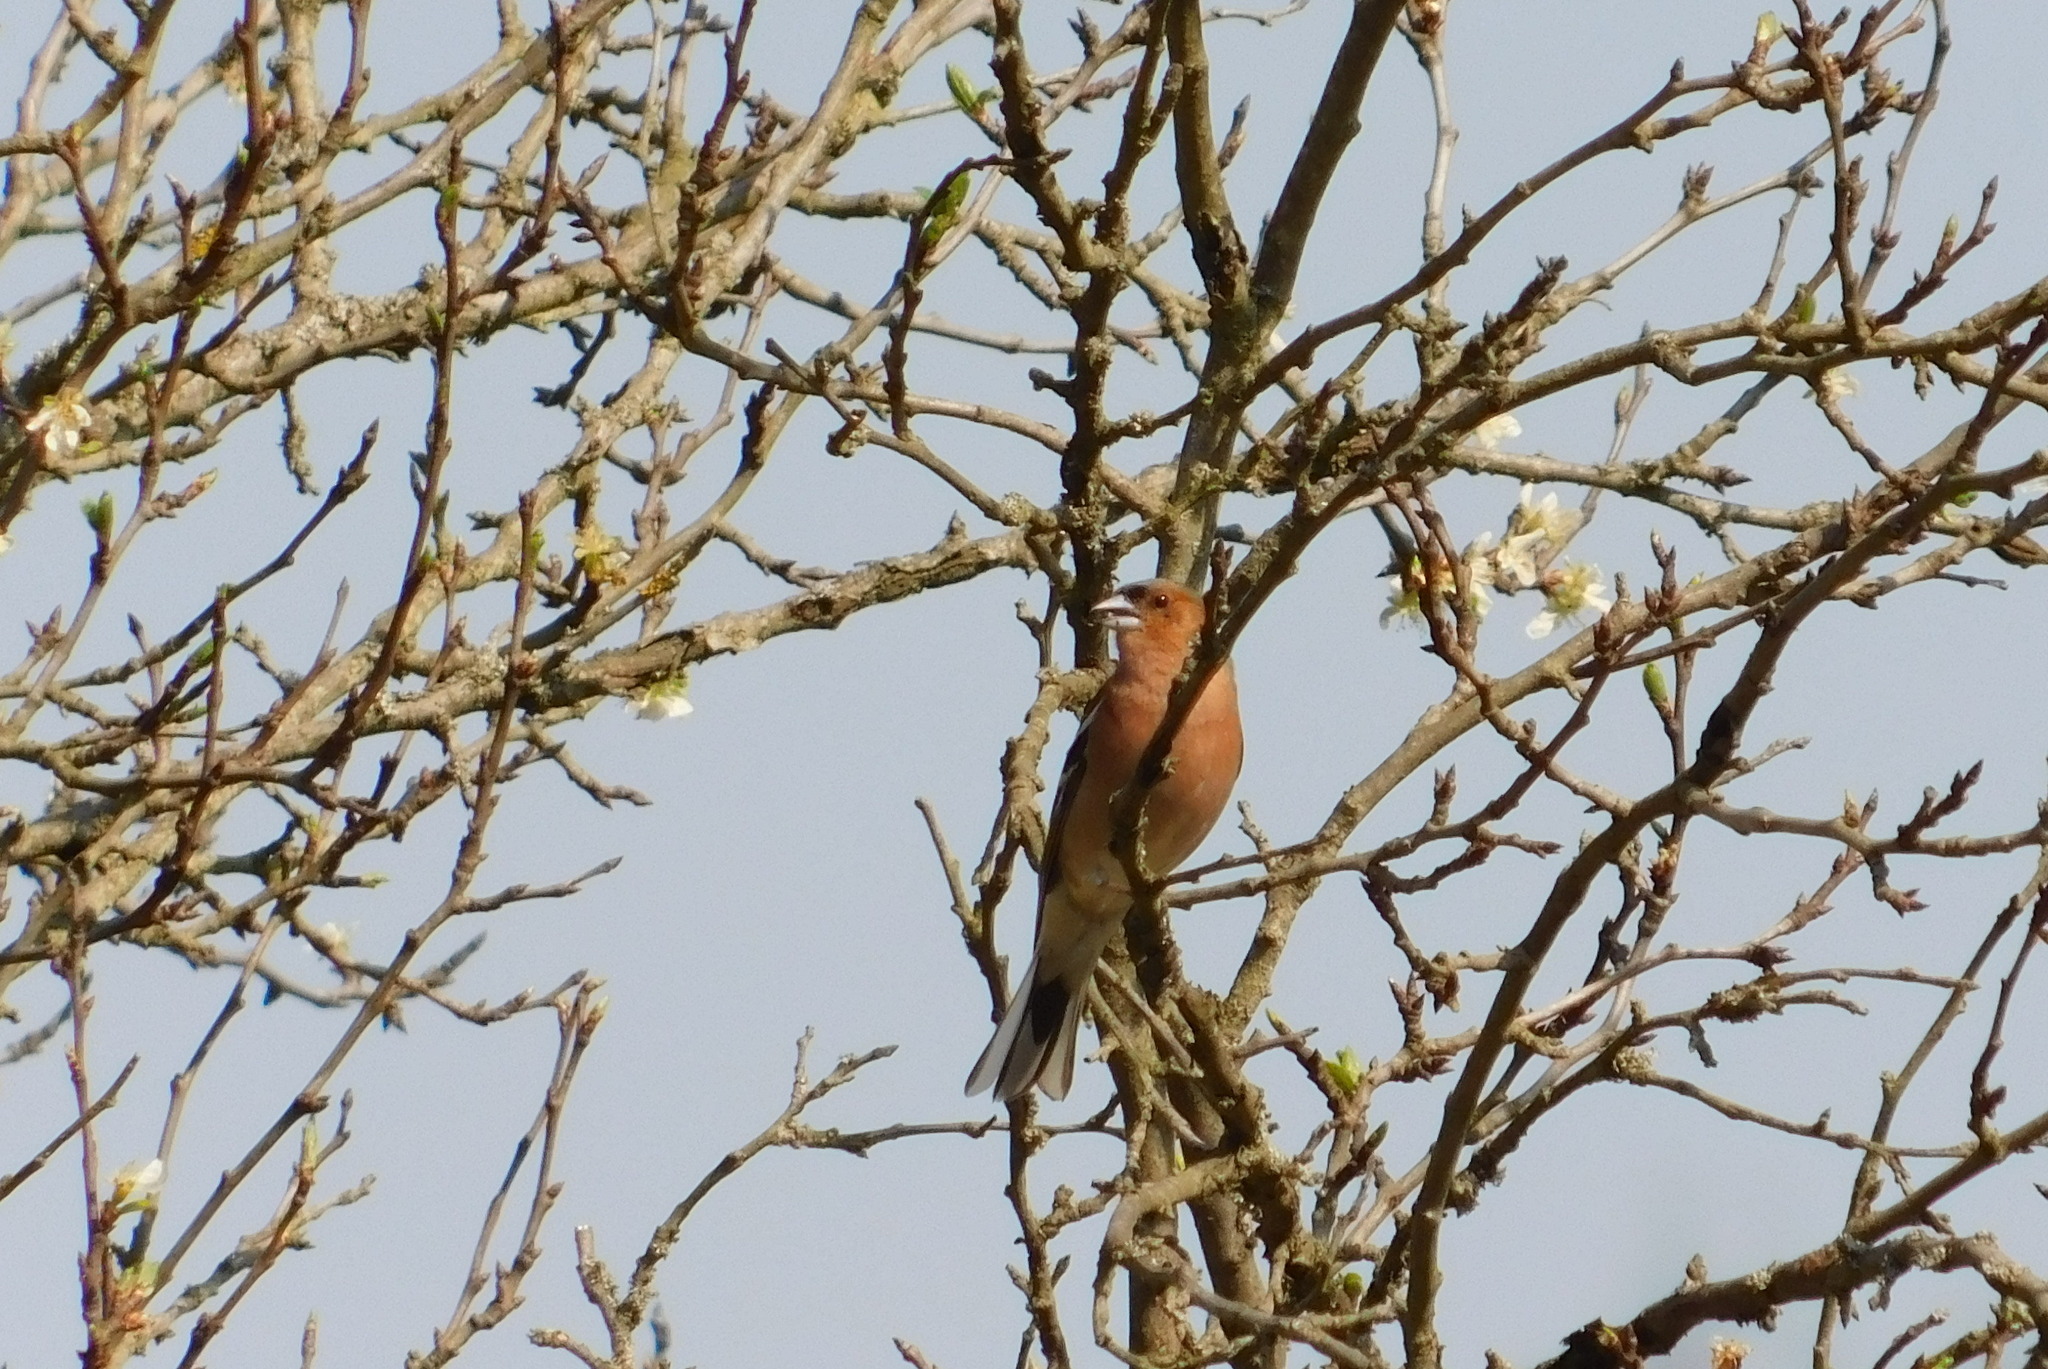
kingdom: Animalia
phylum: Chordata
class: Aves
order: Passeriformes
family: Fringillidae
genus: Fringilla
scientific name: Fringilla coelebs
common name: Common chaffinch
